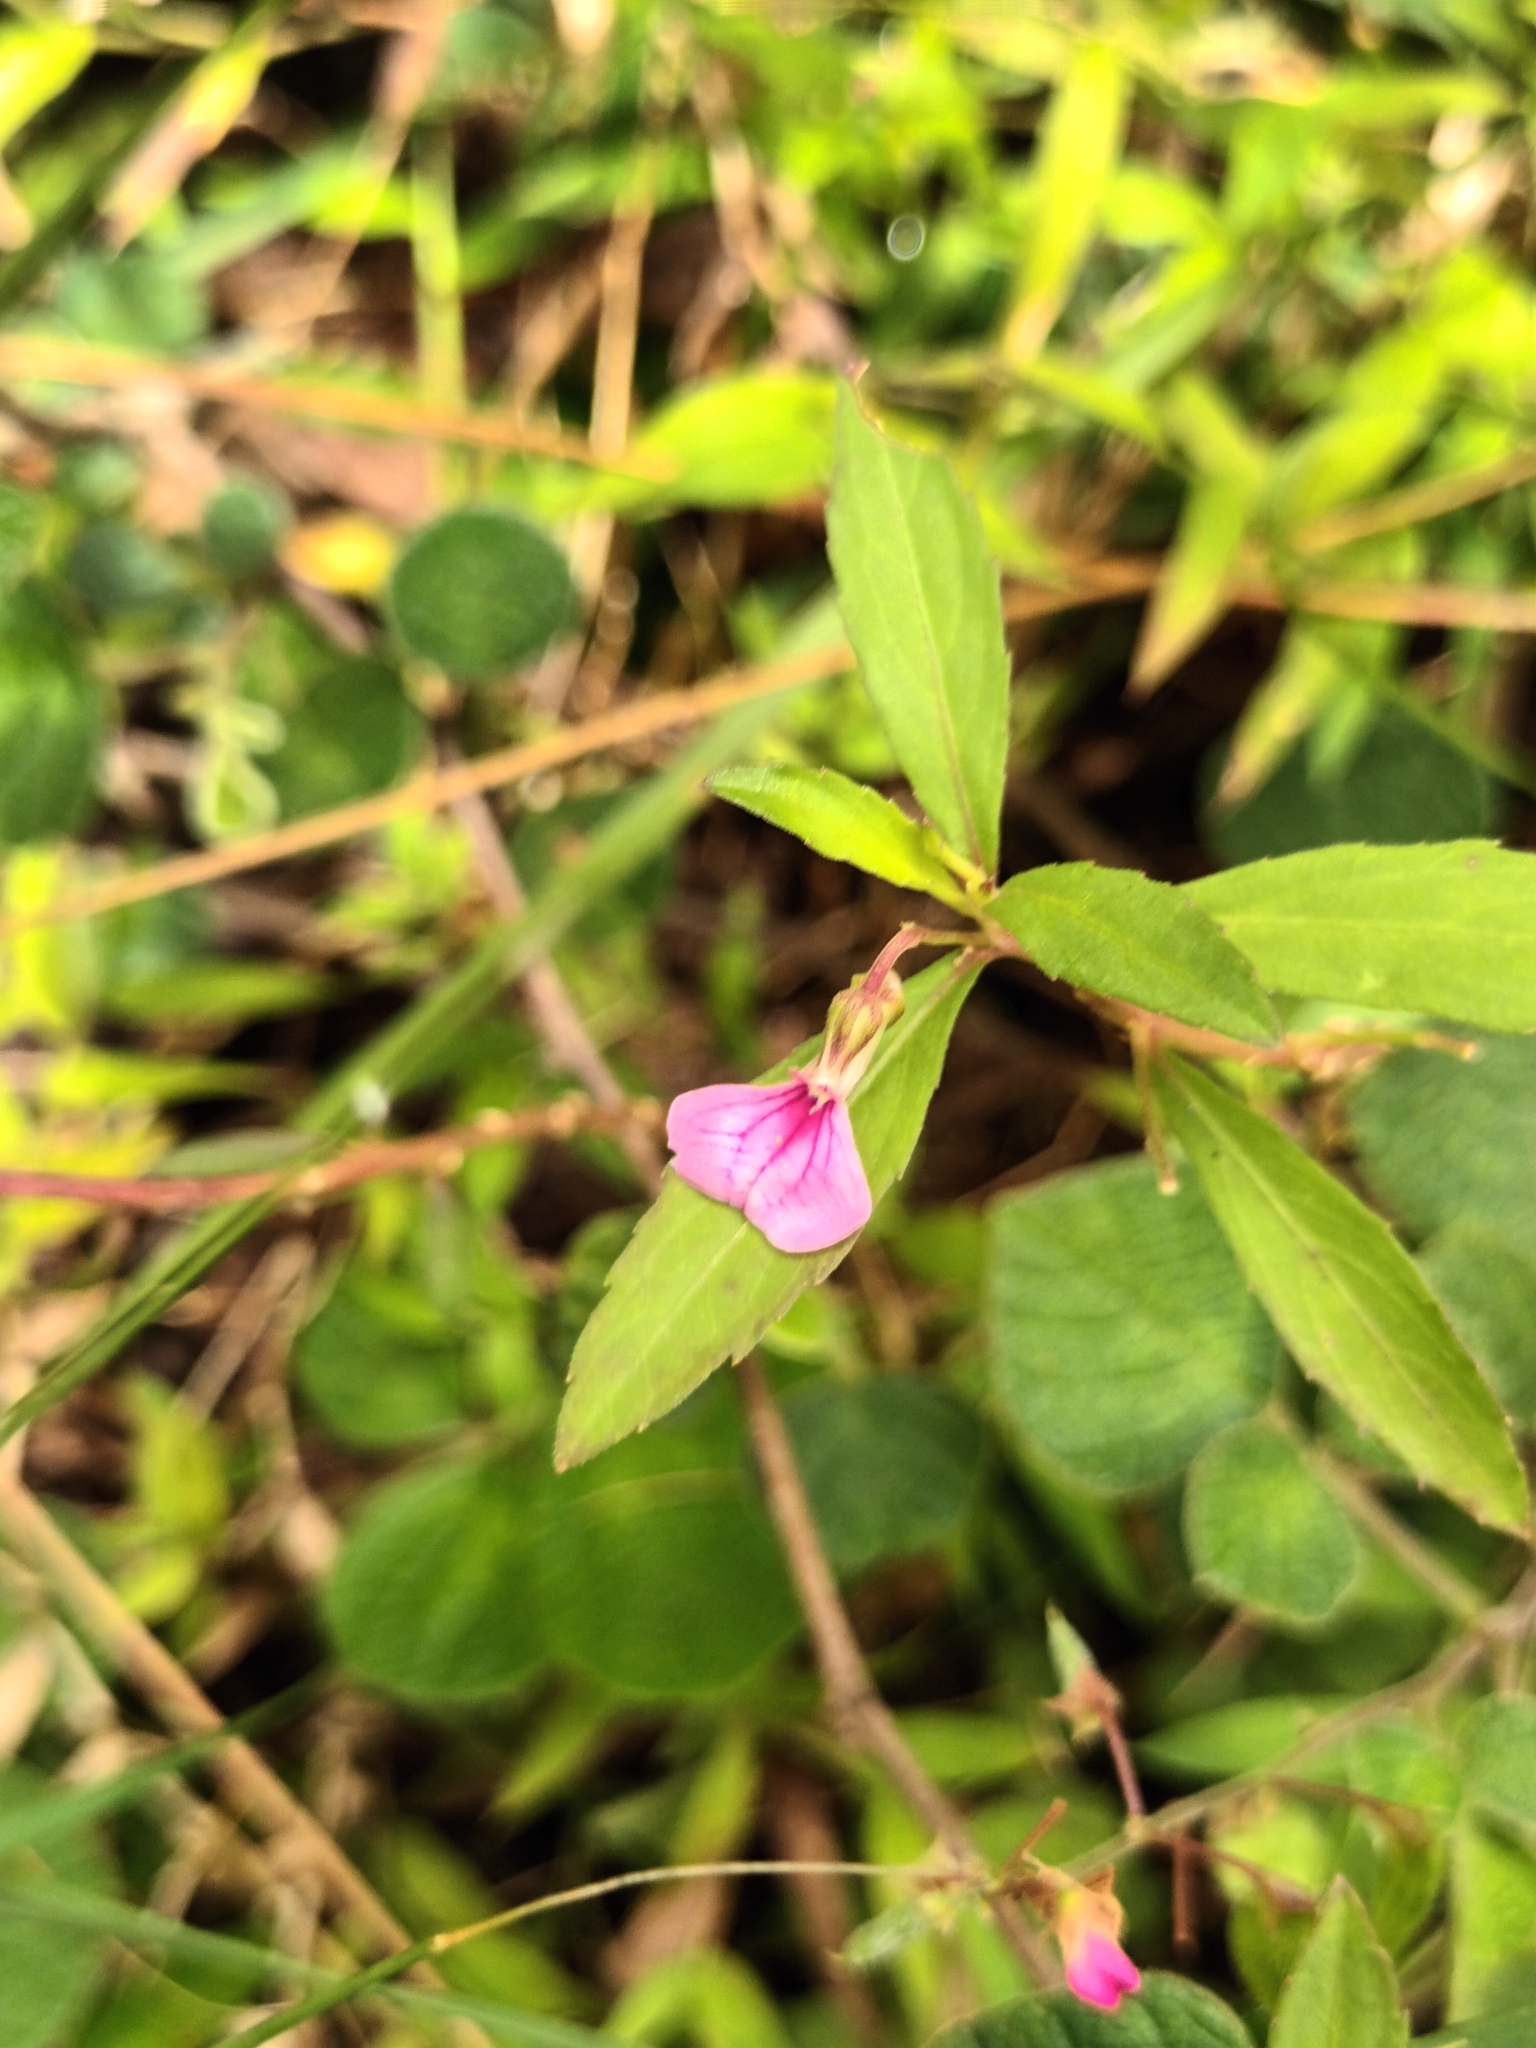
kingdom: Plantae
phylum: Tracheophyta
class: Magnoliopsida
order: Malpighiales
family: Violaceae
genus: Pigea
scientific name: Pigea enneasperma
